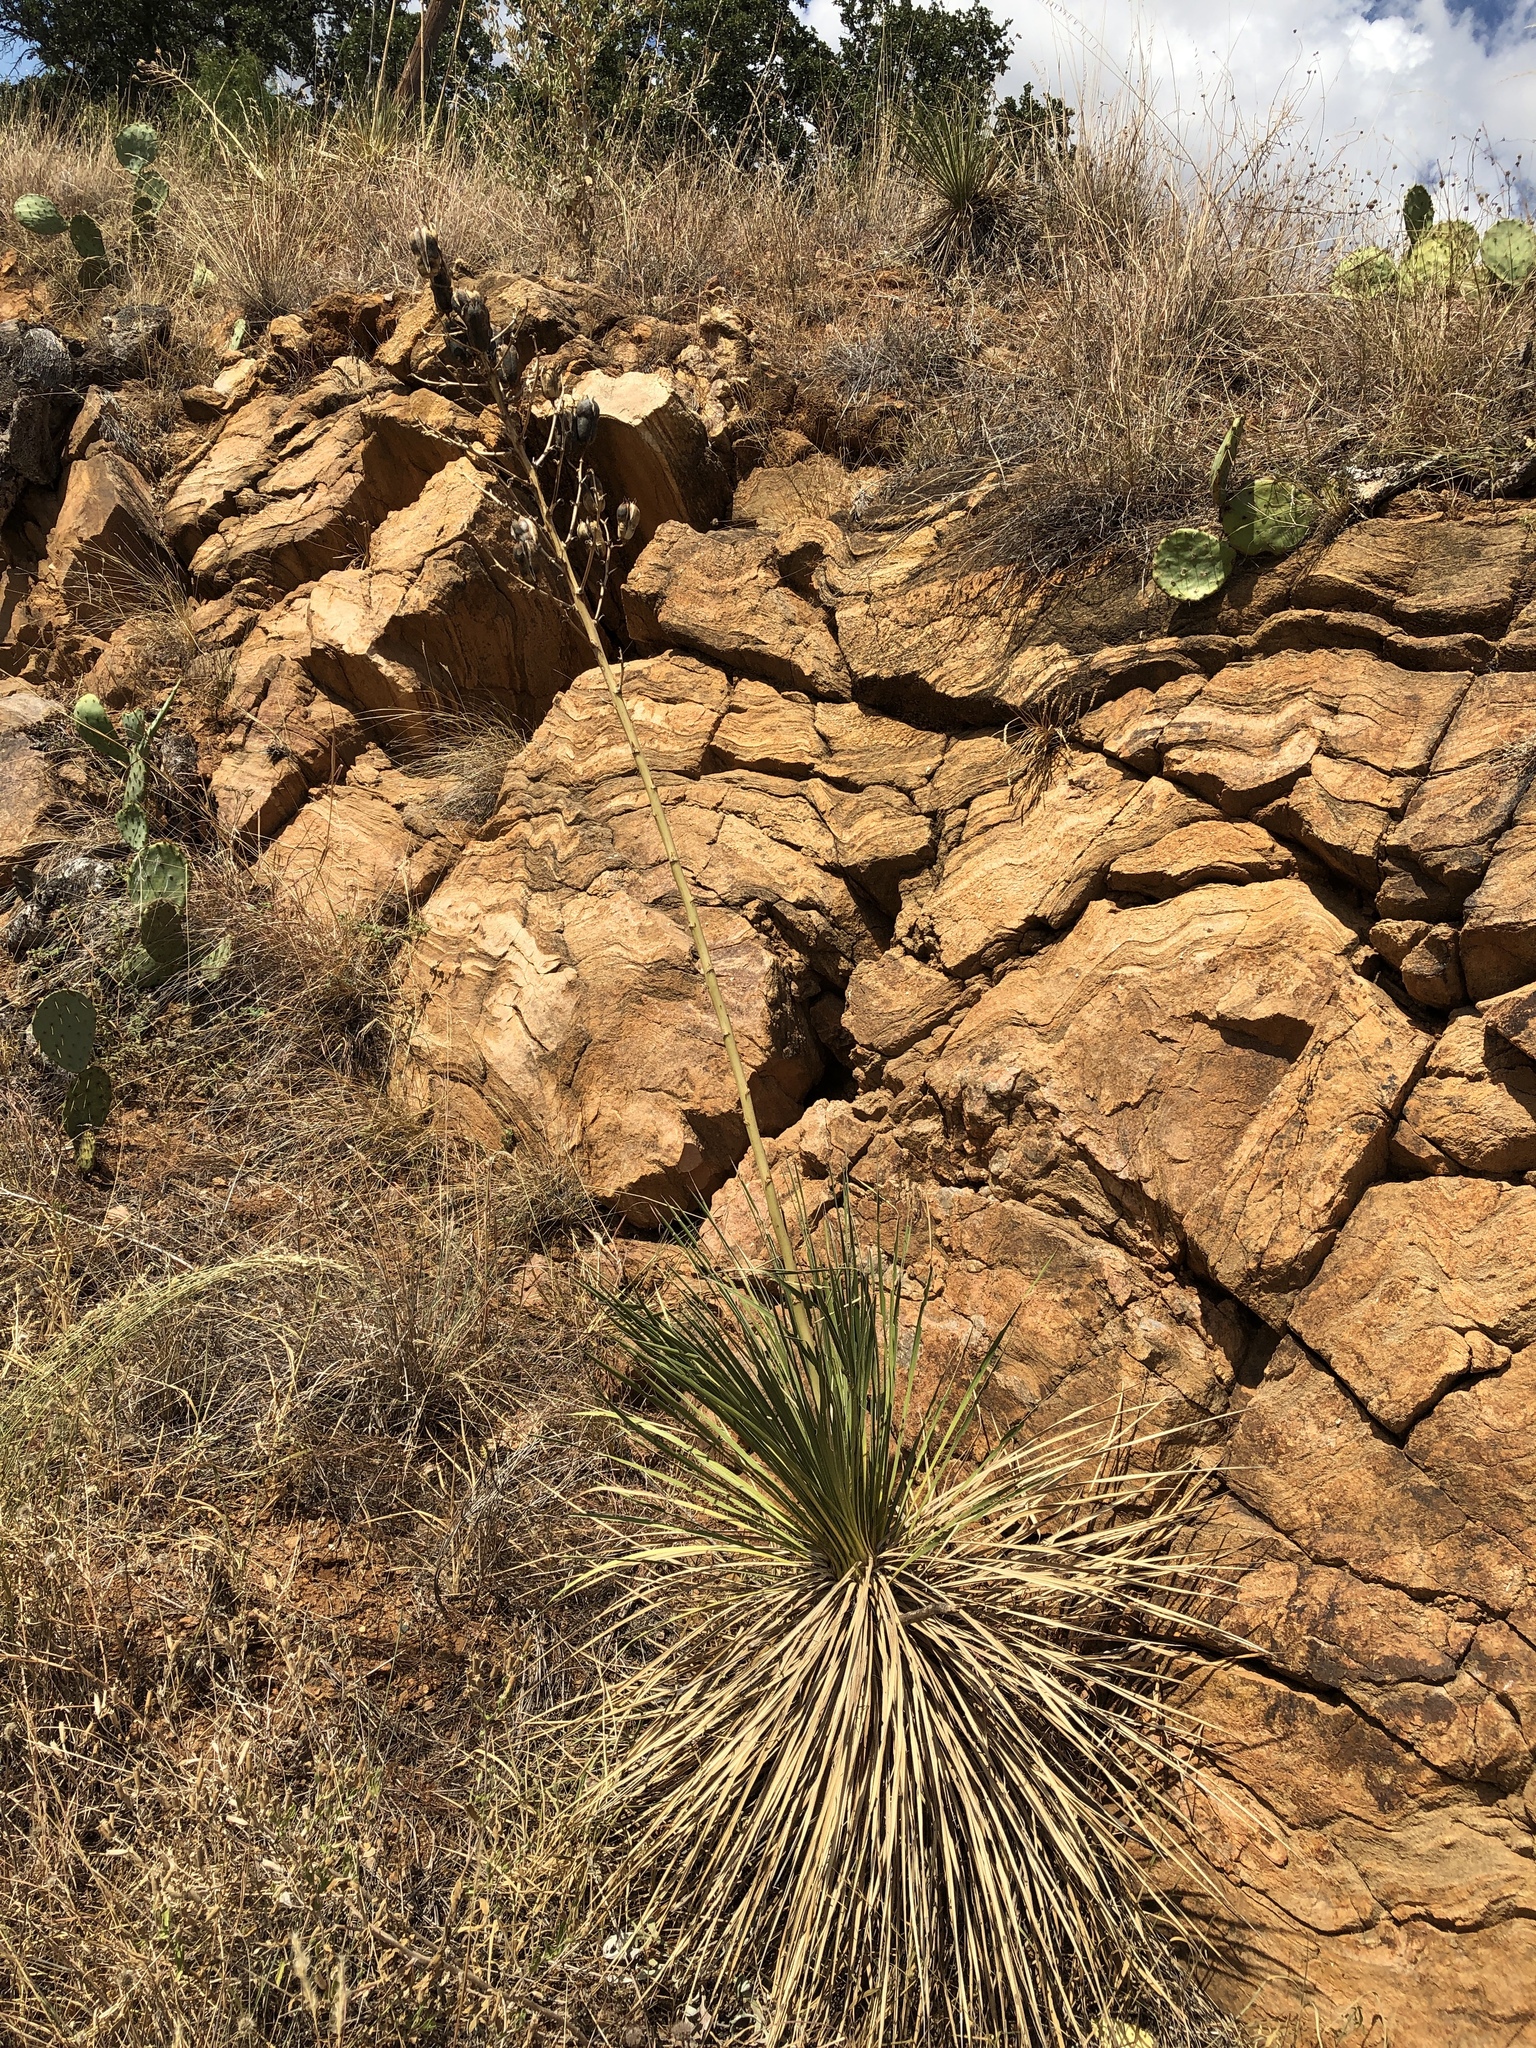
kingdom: Plantae
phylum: Tracheophyta
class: Liliopsida
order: Asparagales
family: Asparagaceae
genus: Yucca
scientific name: Yucca constricta
